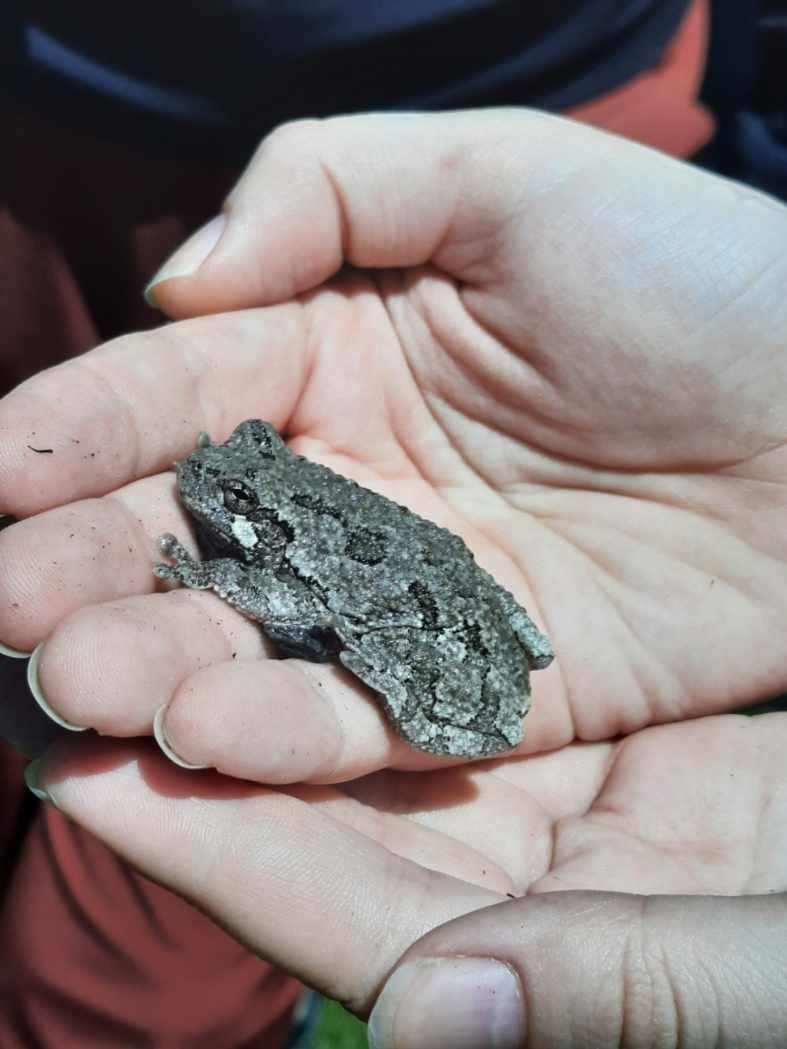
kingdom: Animalia
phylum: Chordata
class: Amphibia
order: Anura
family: Hylidae
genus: Dryophytes
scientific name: Dryophytes versicolor
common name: Gray treefrog
